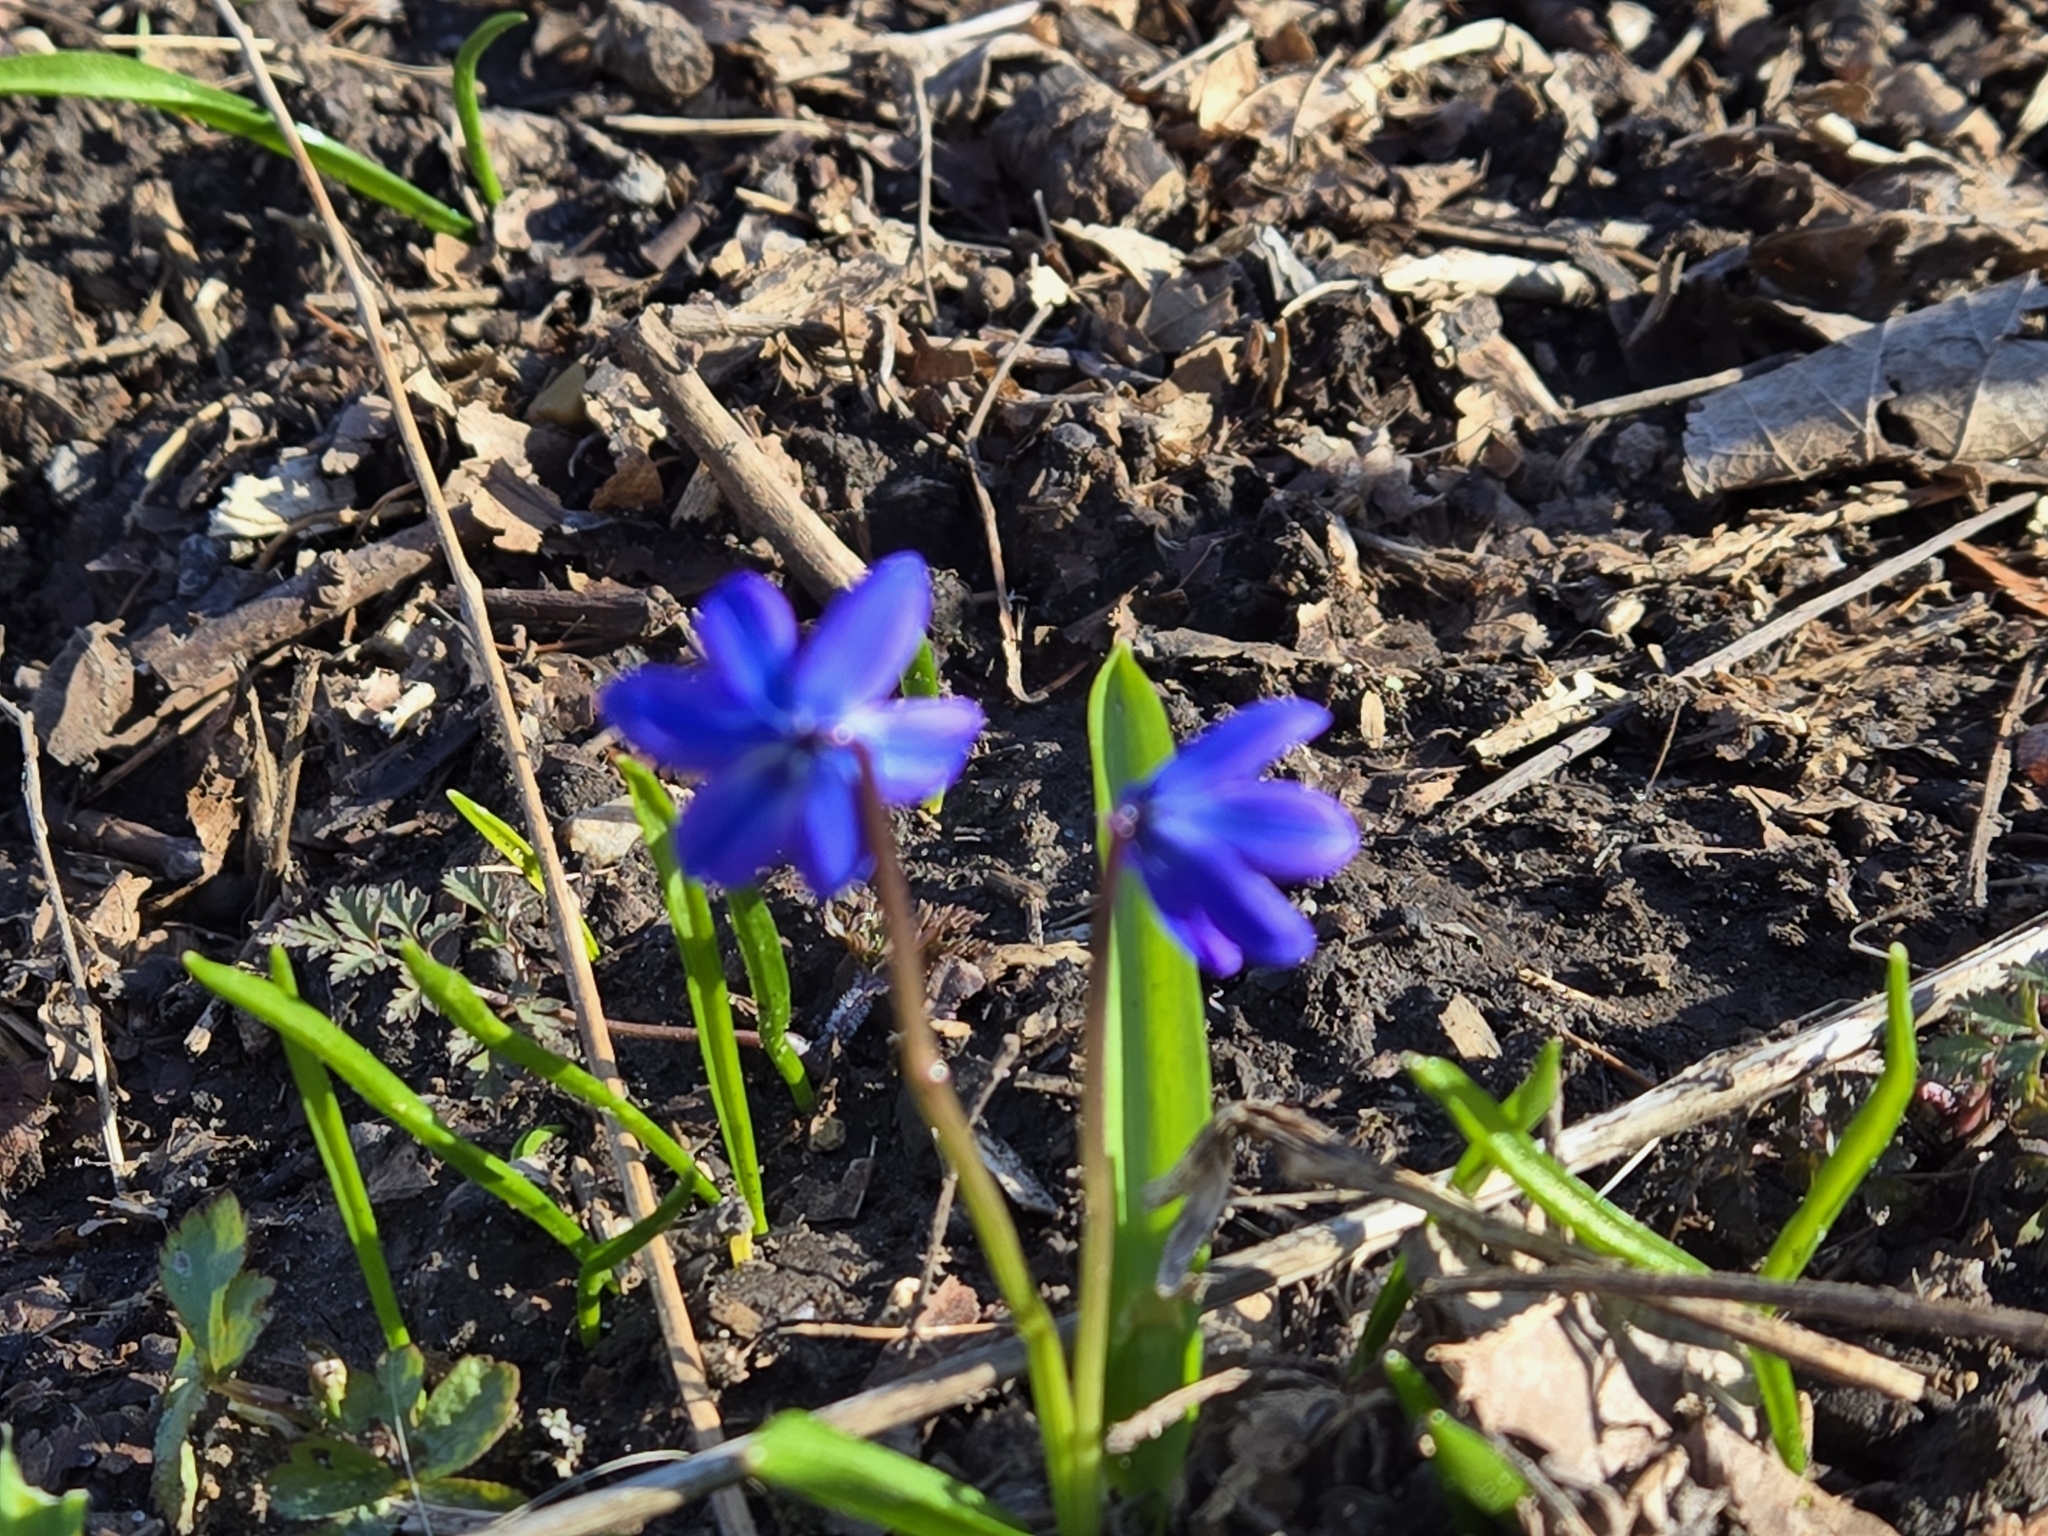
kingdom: Plantae
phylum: Tracheophyta
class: Liliopsida
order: Asparagales
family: Asparagaceae
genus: Scilla
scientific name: Scilla siberica
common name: Siberian squill
